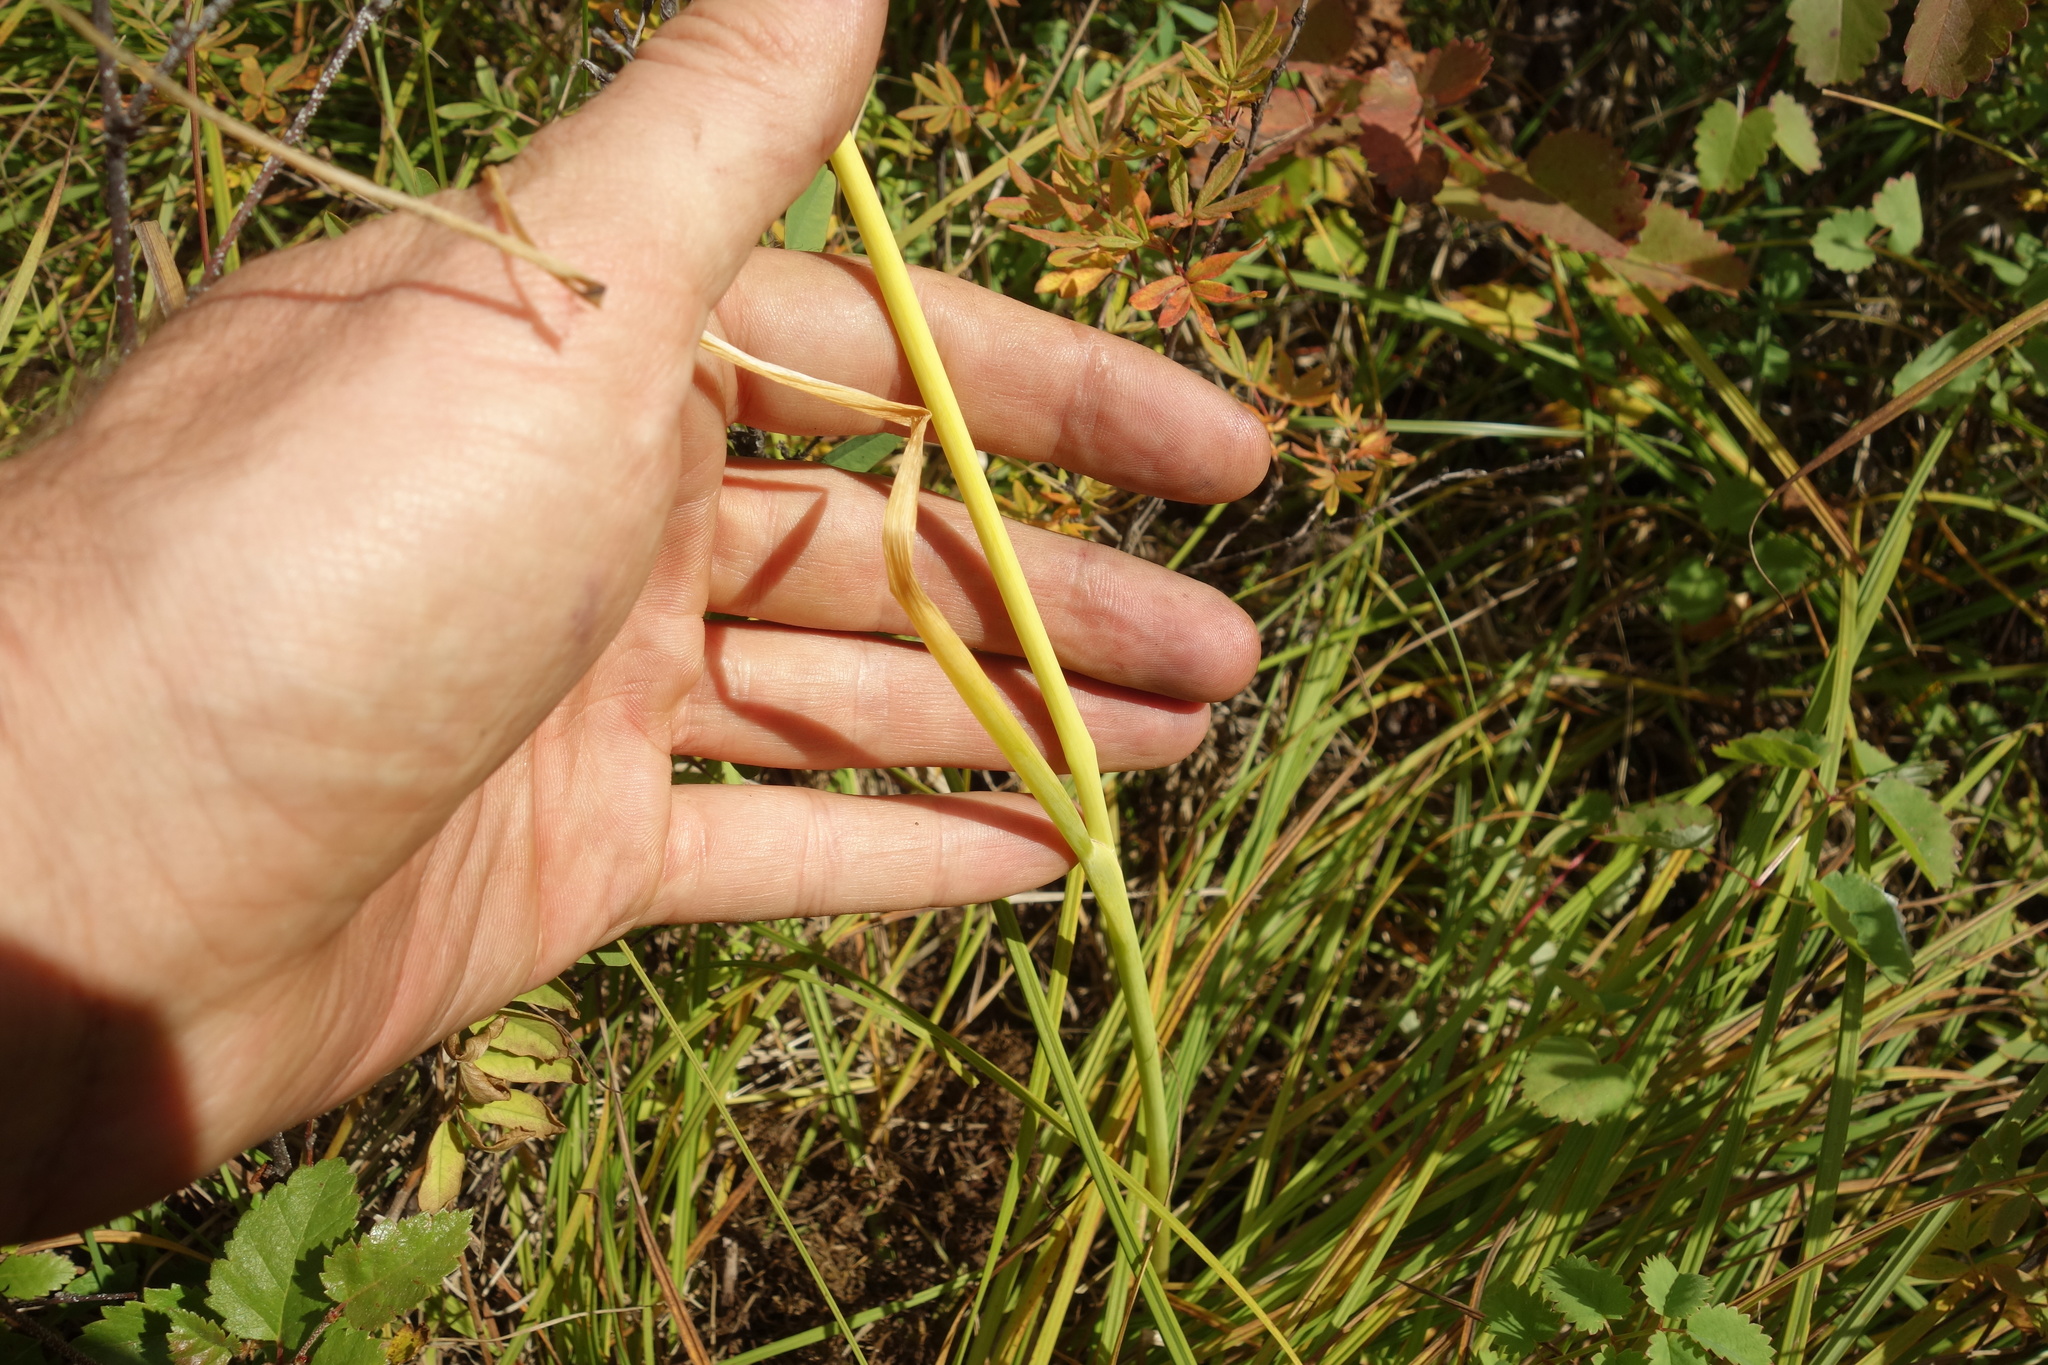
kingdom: Plantae
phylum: Tracheophyta
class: Liliopsida
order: Asparagales
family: Amaryllidaceae
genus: Allium
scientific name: Allium schoenoprasum
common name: Chives
